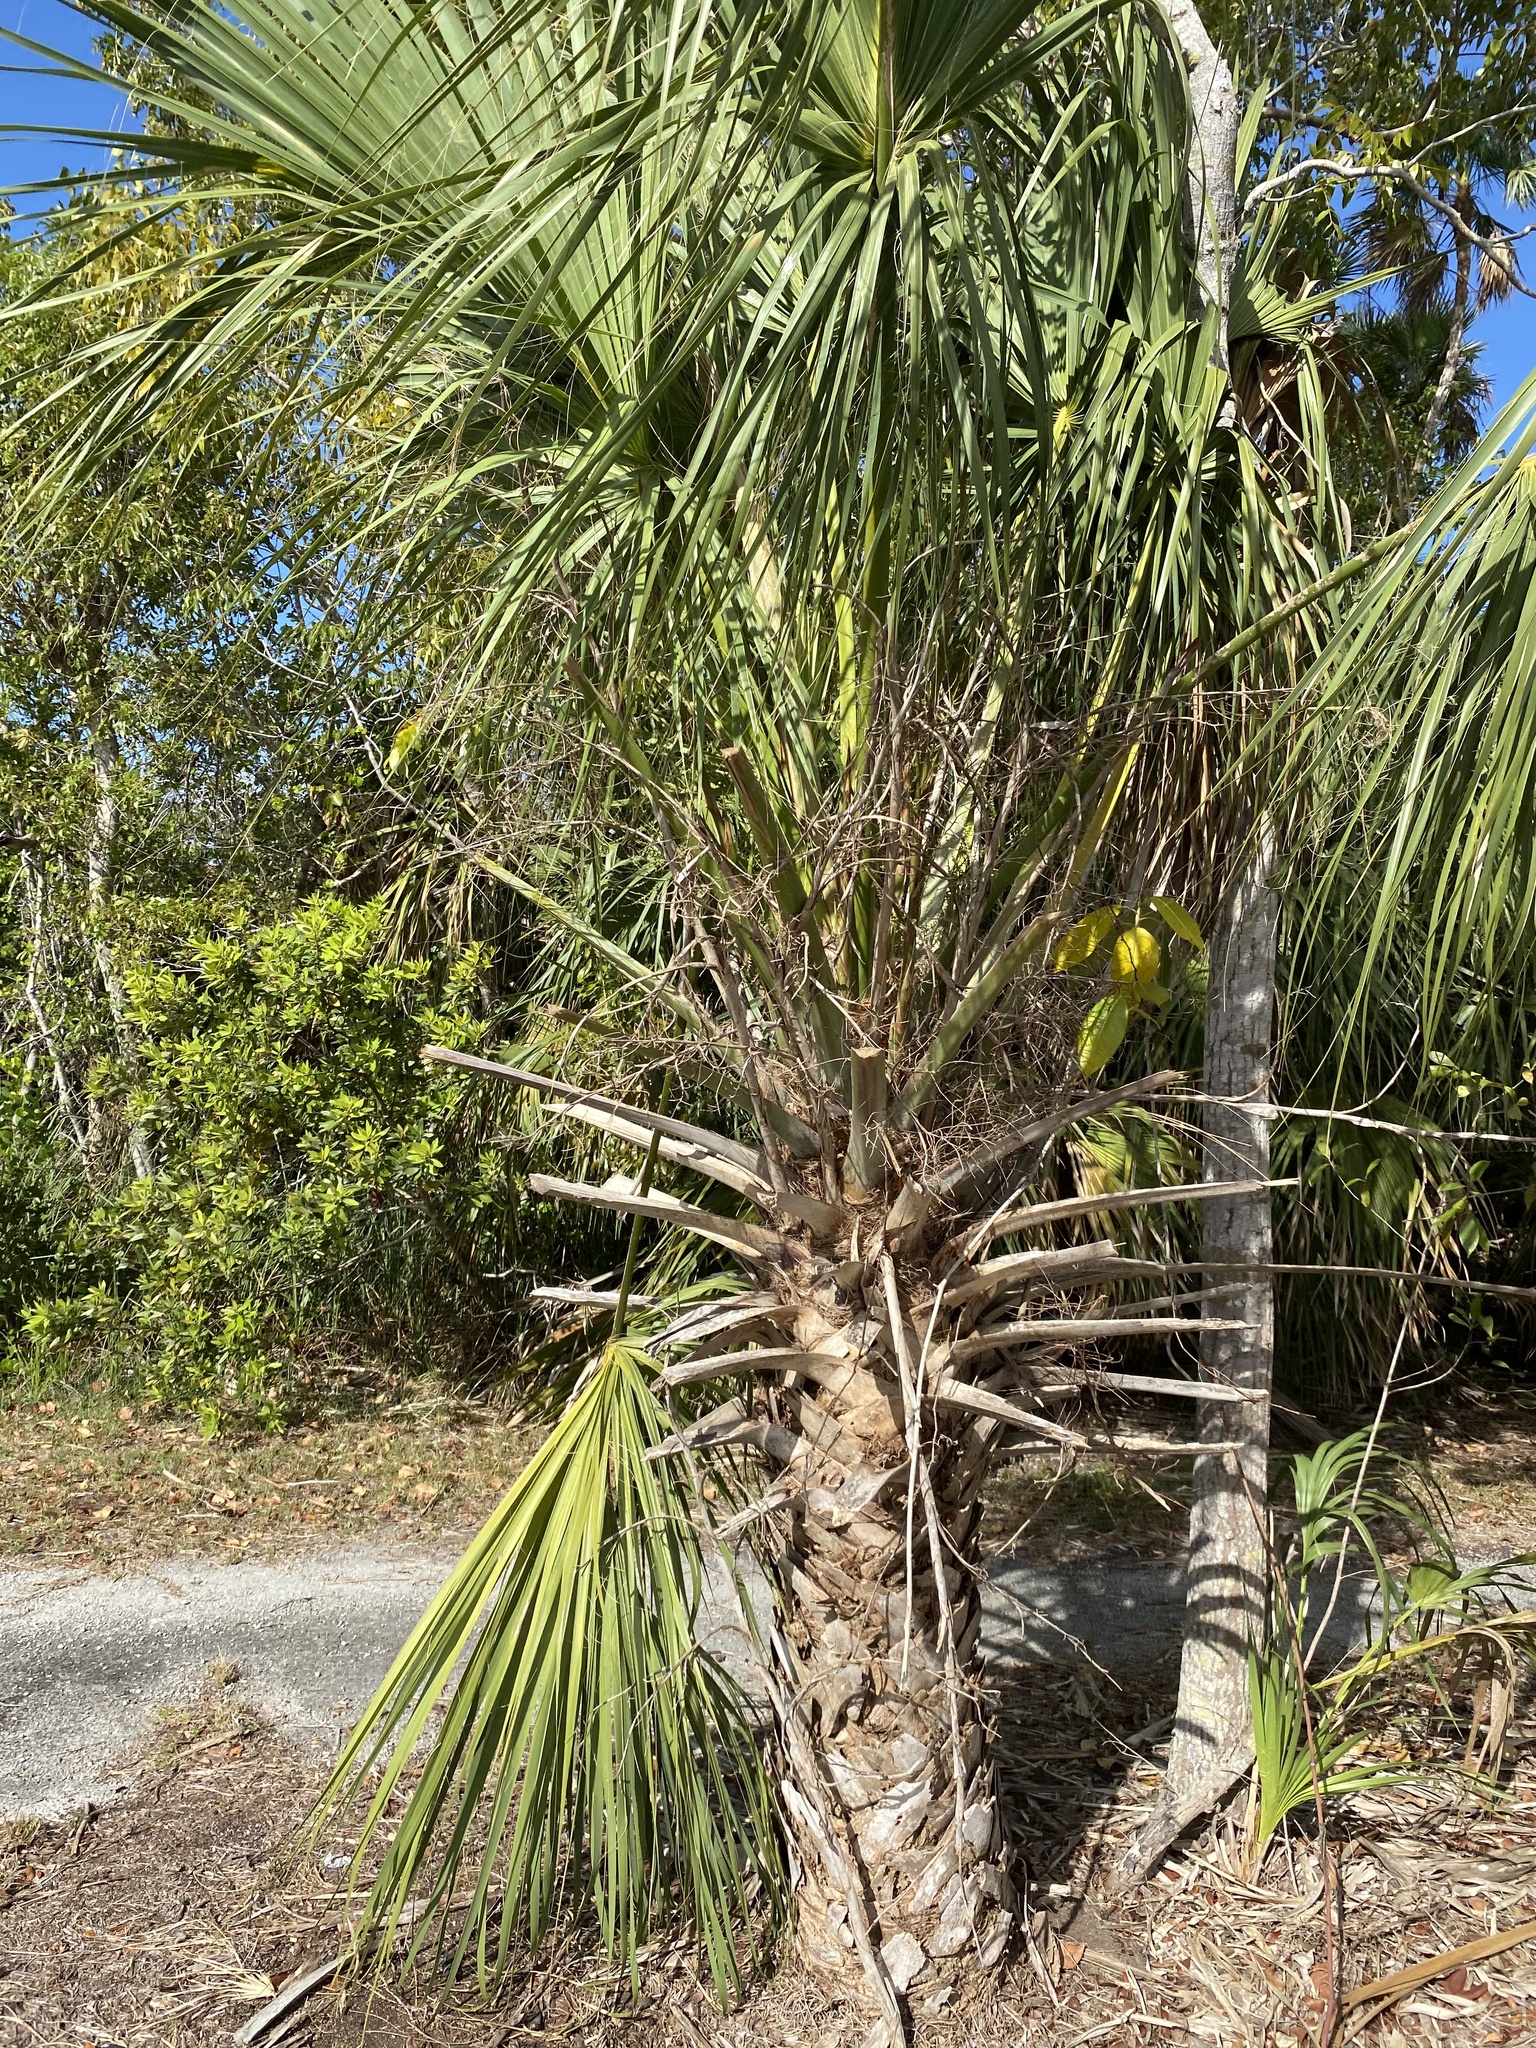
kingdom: Plantae
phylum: Tracheophyta
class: Liliopsida
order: Arecales
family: Arecaceae
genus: Sabal
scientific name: Sabal palmetto
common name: Blue palmetto
